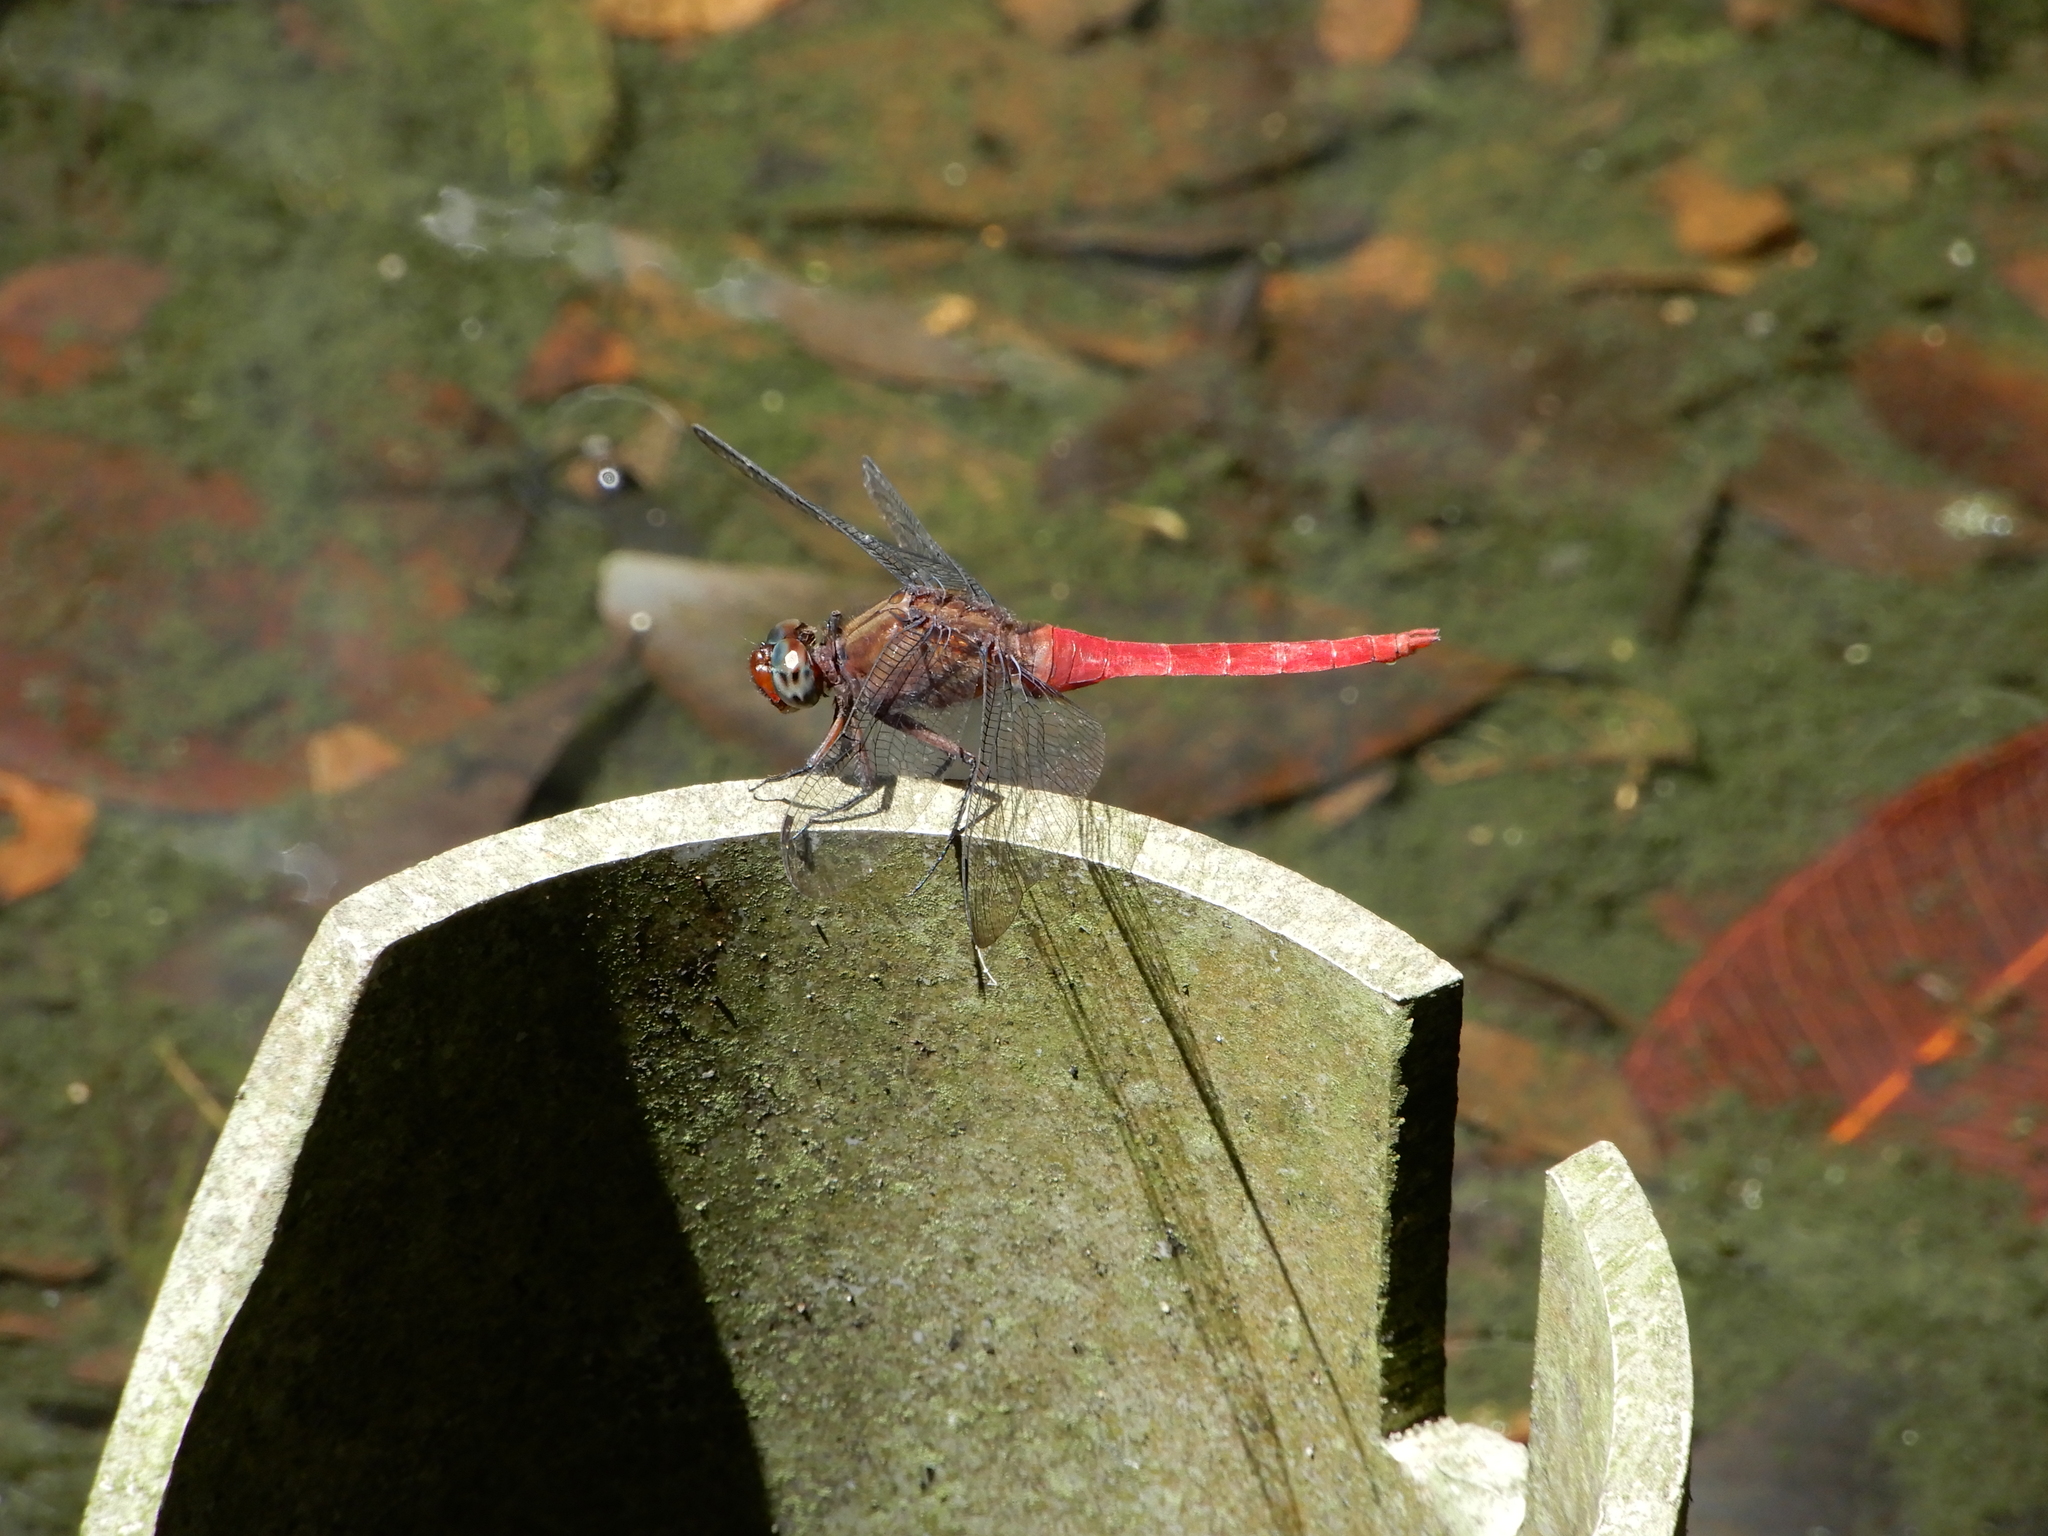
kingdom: Animalia
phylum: Arthropoda
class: Insecta
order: Odonata
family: Libellulidae
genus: Orthetrum
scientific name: Orthetrum chrysis
